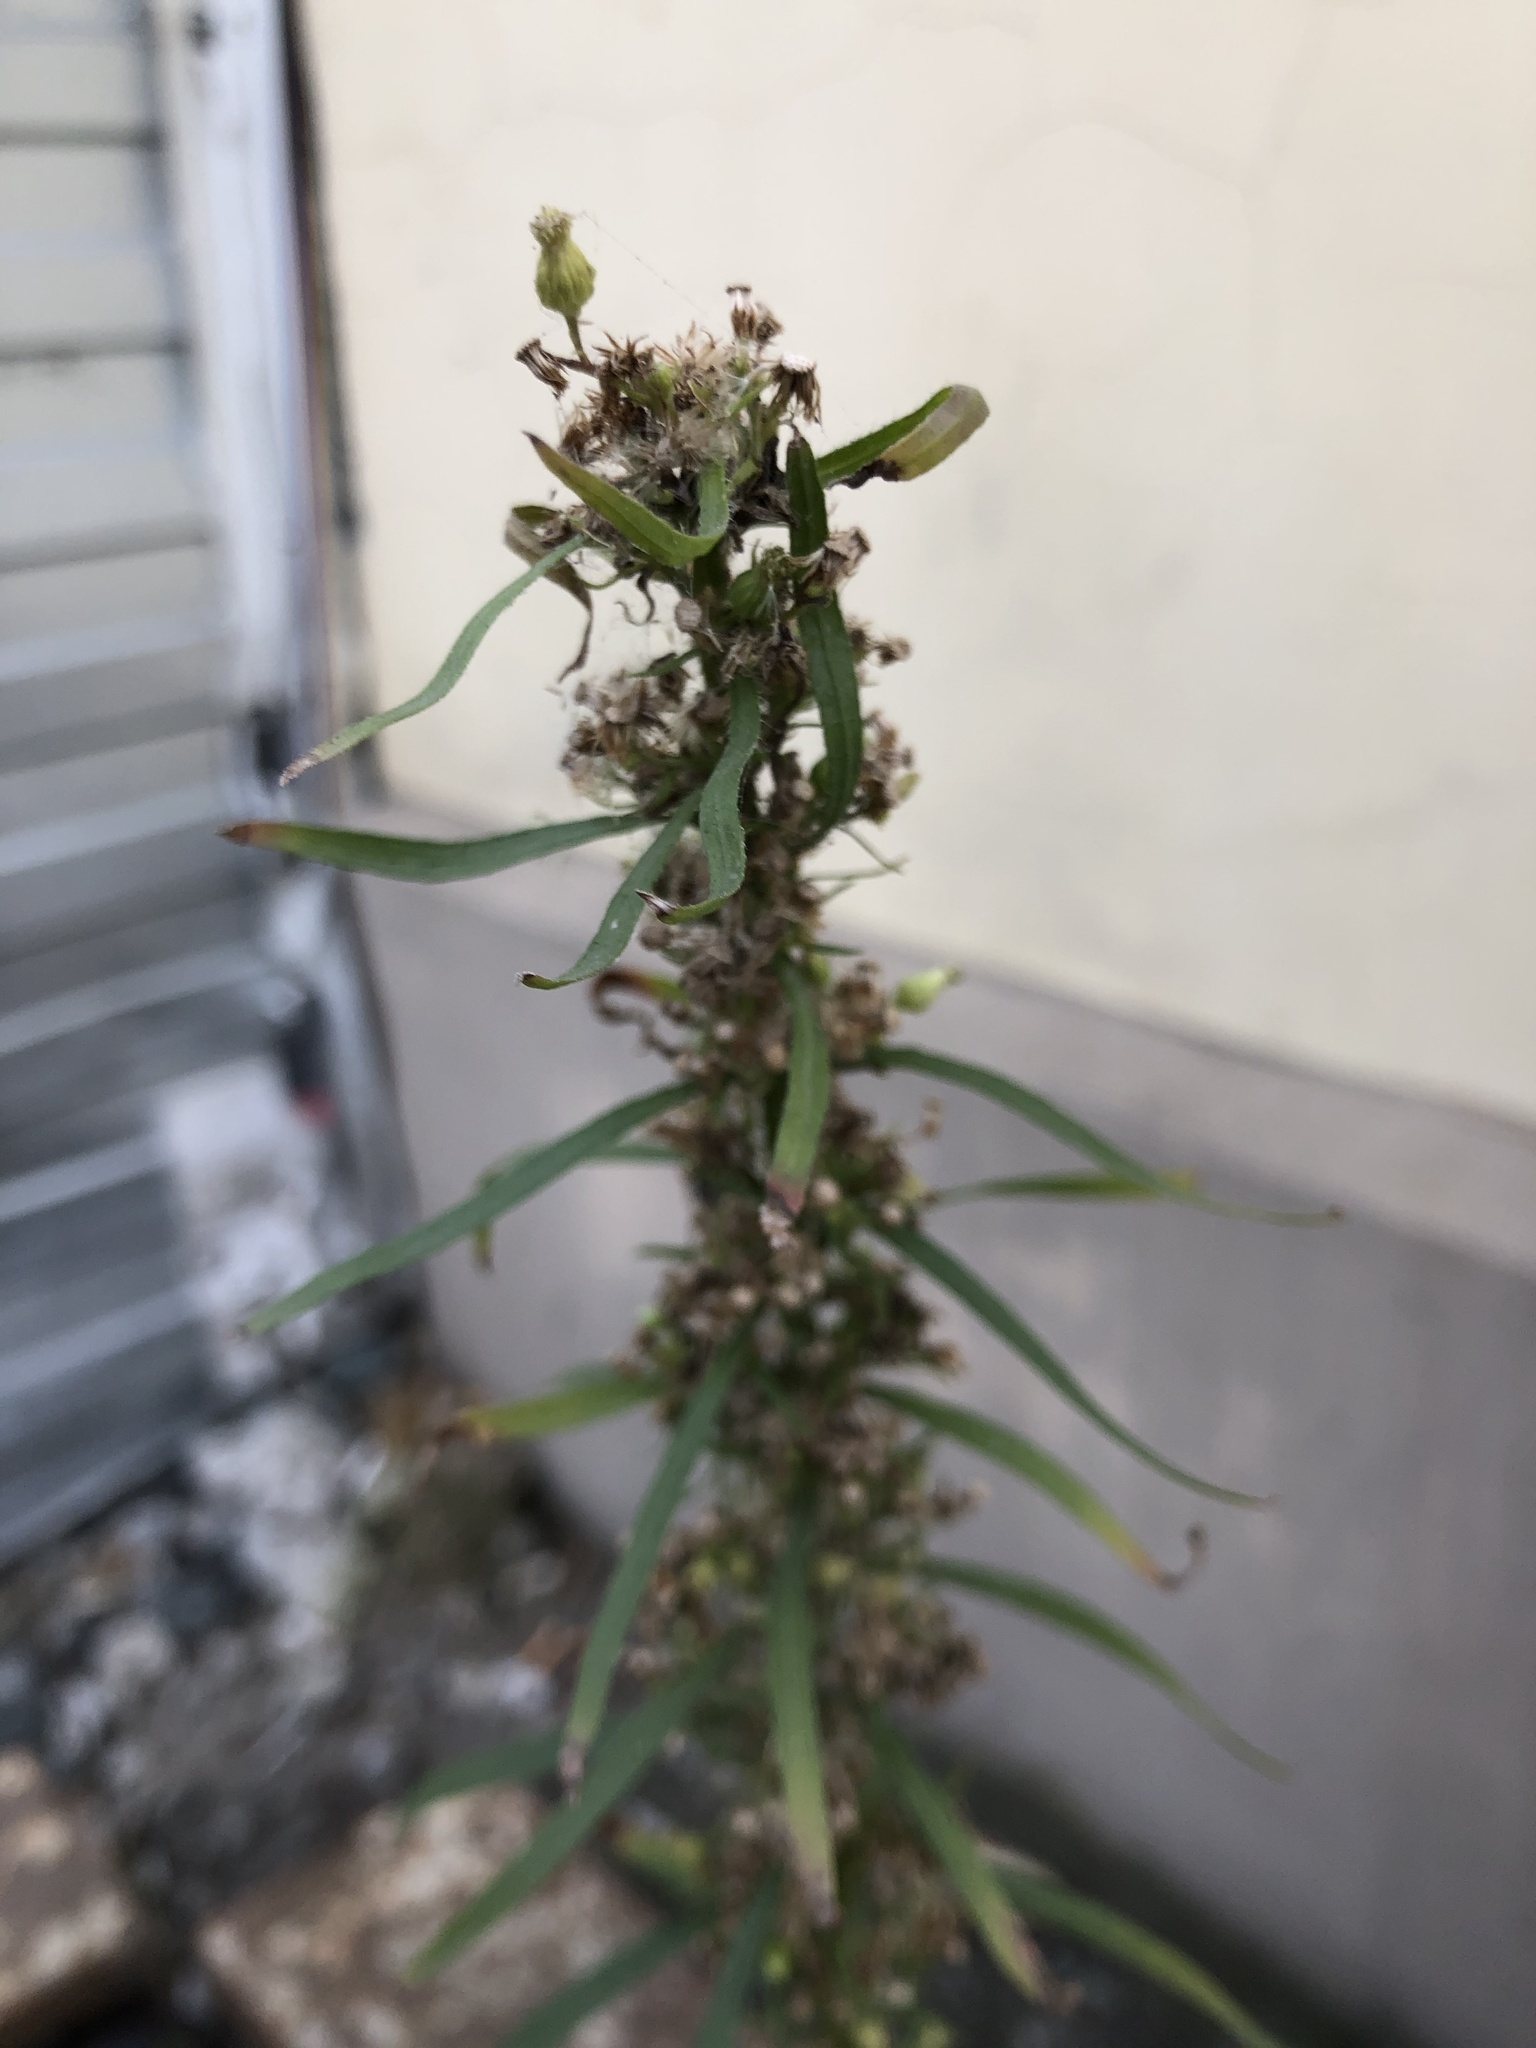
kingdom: Plantae
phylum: Tracheophyta
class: Magnoliopsida
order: Asterales
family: Asteraceae
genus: Erigeron
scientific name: Erigeron canadensis
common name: Canadian fleabane
